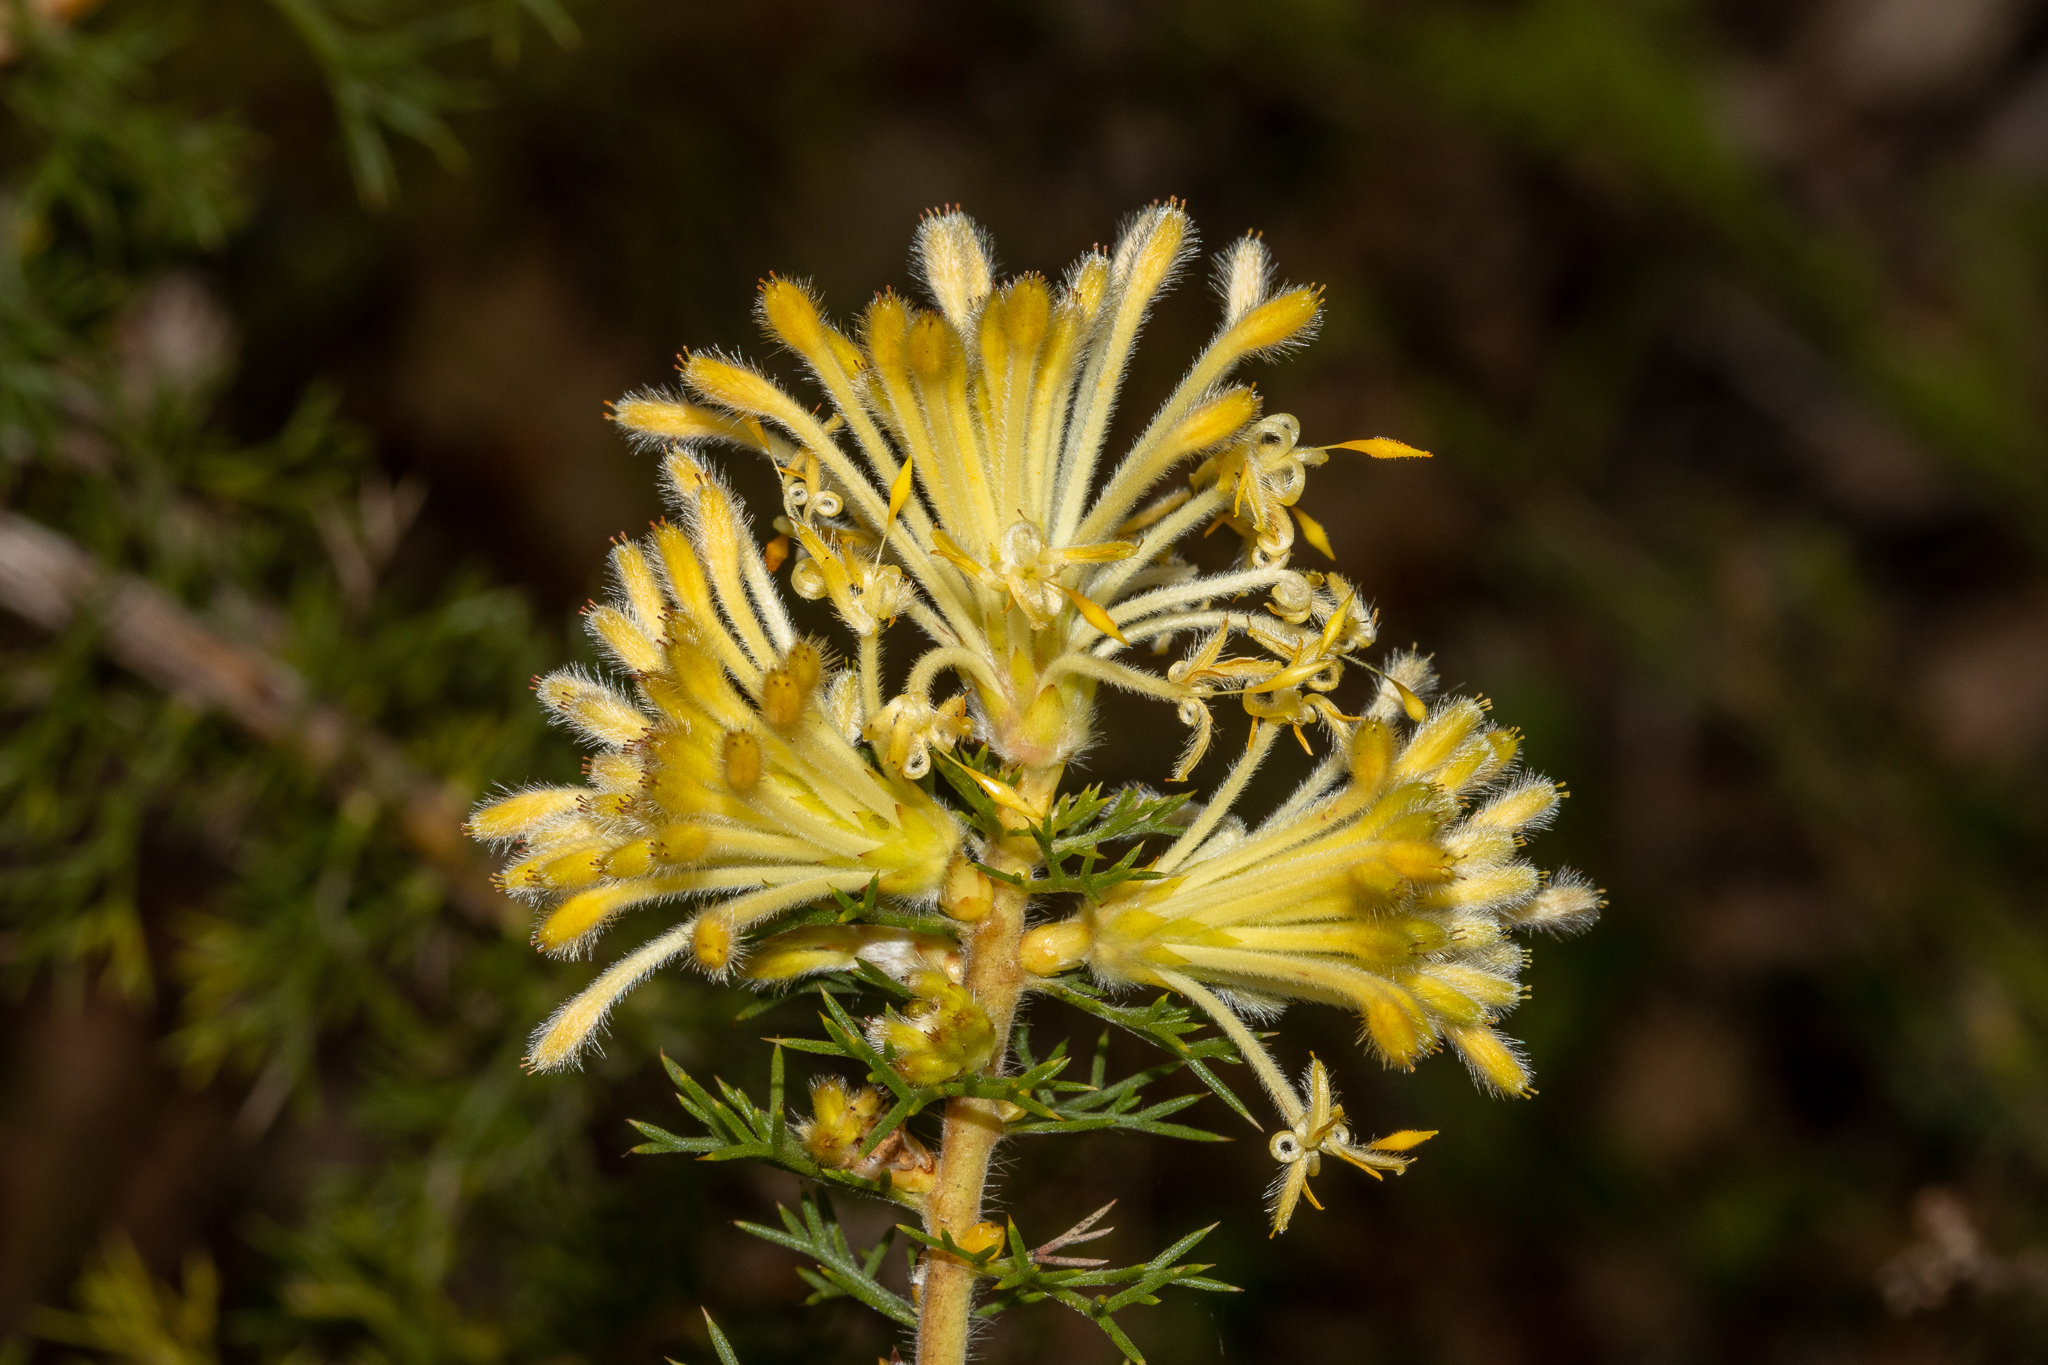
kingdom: Plantae
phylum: Tracheophyta
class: Magnoliopsida
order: Proteales
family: Proteaceae
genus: Petrophile
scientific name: Petrophile serruriae
